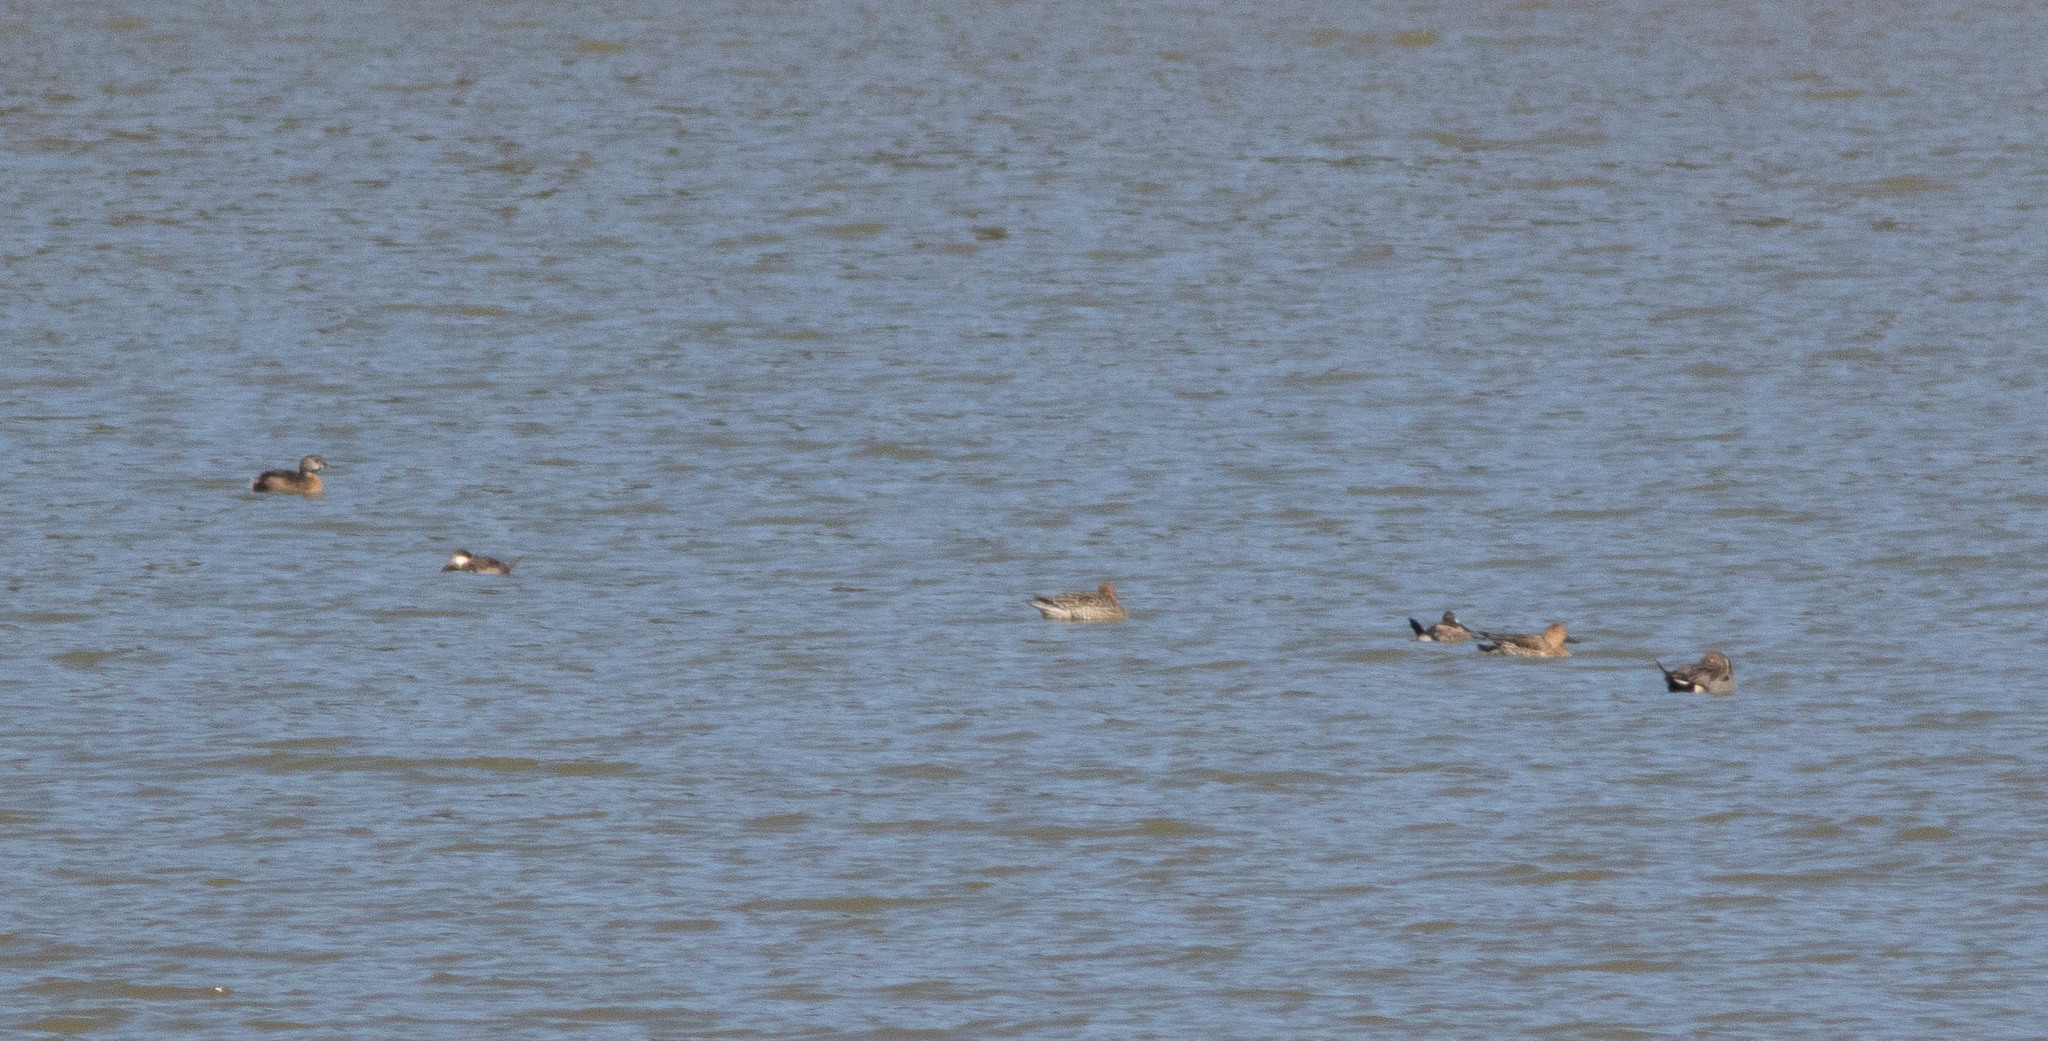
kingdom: Animalia
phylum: Chordata
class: Aves
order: Anseriformes
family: Anatidae
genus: Anas
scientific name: Anas acuta
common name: Northern pintail
